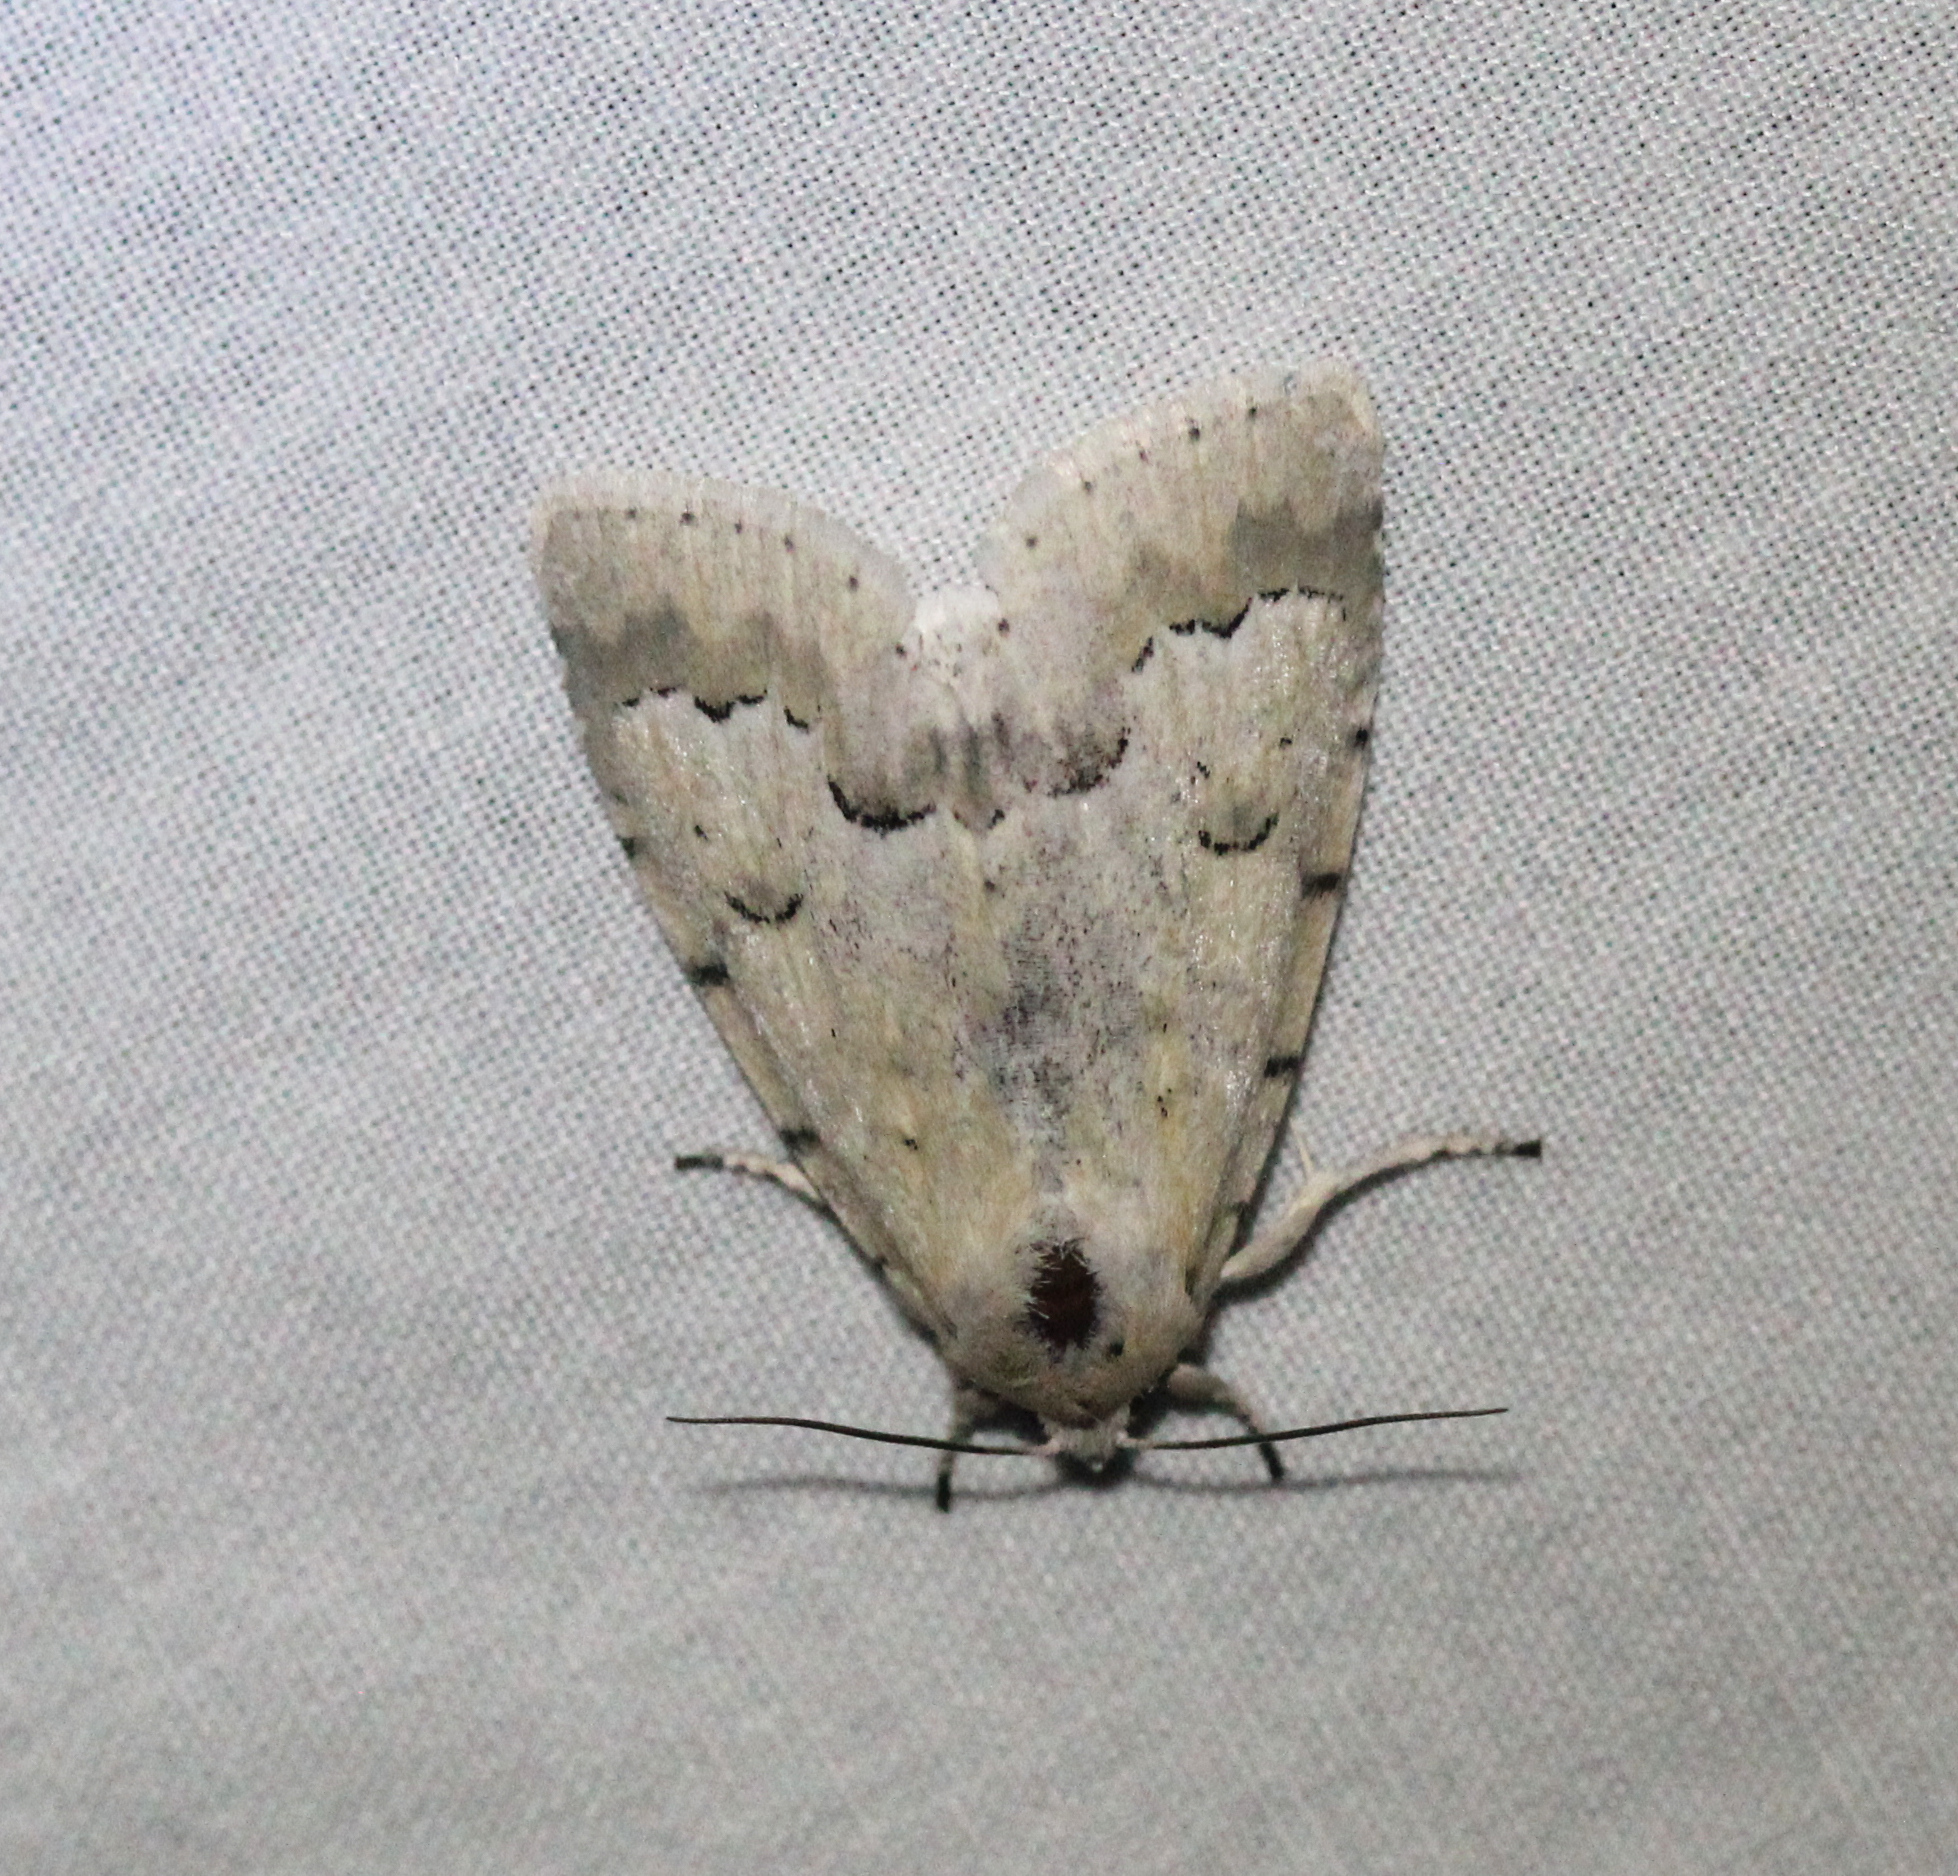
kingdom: Animalia
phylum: Arthropoda
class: Insecta
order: Lepidoptera
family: Noctuidae
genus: Acronicta
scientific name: Acronicta innotata
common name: Unmarked dagger
